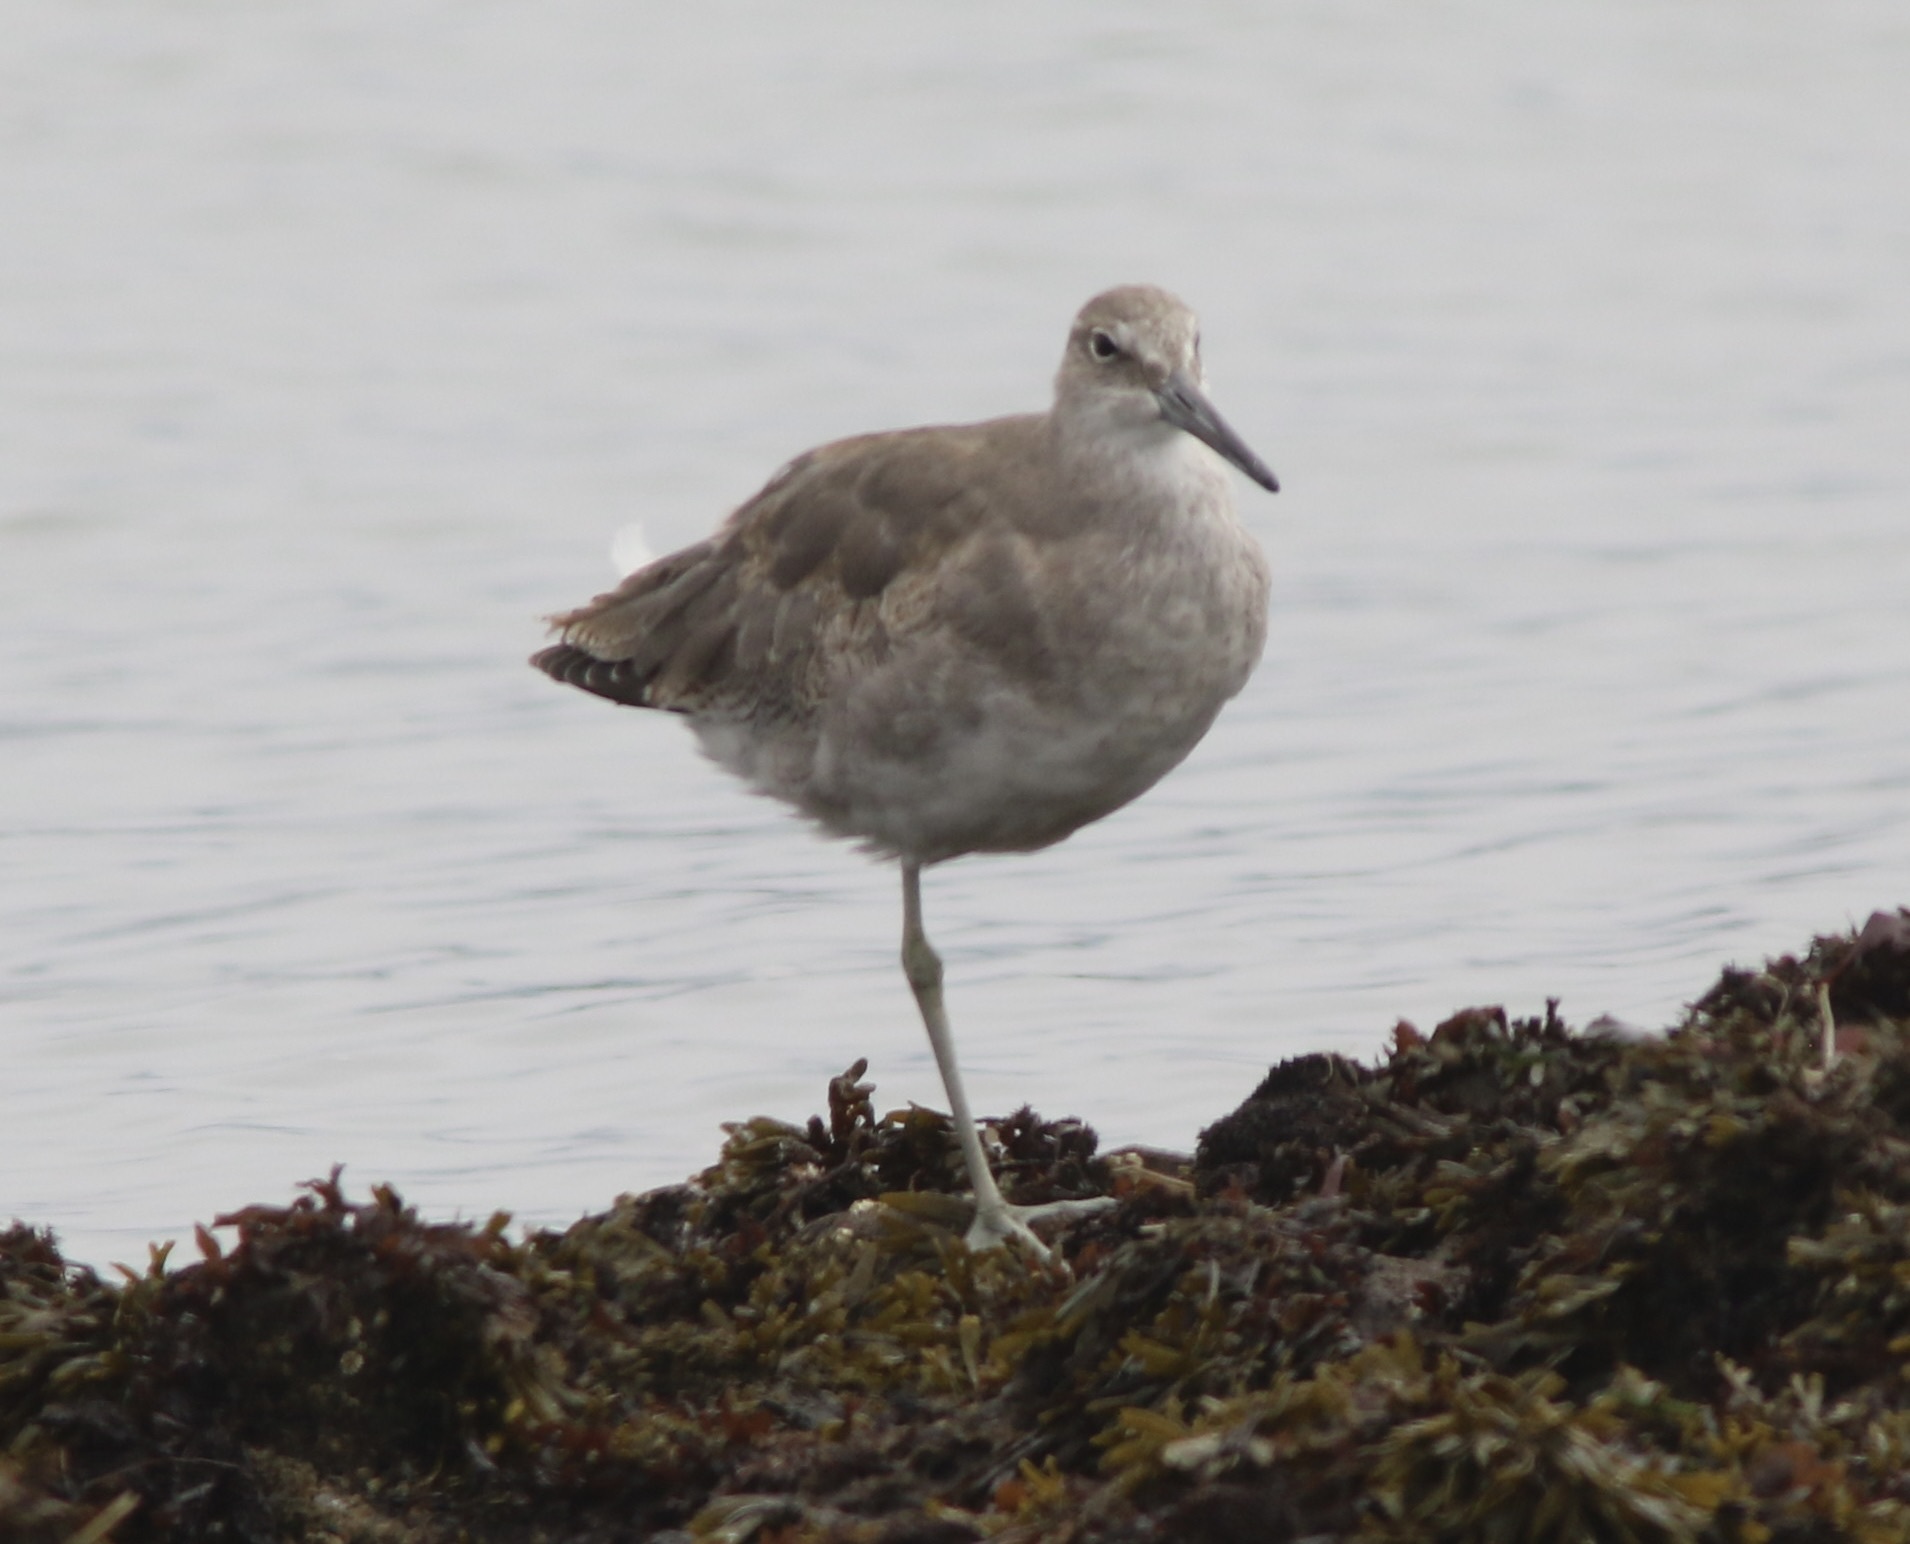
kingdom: Animalia
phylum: Chordata
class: Aves
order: Charadriiformes
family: Scolopacidae
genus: Tringa
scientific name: Tringa semipalmata
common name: Willet
